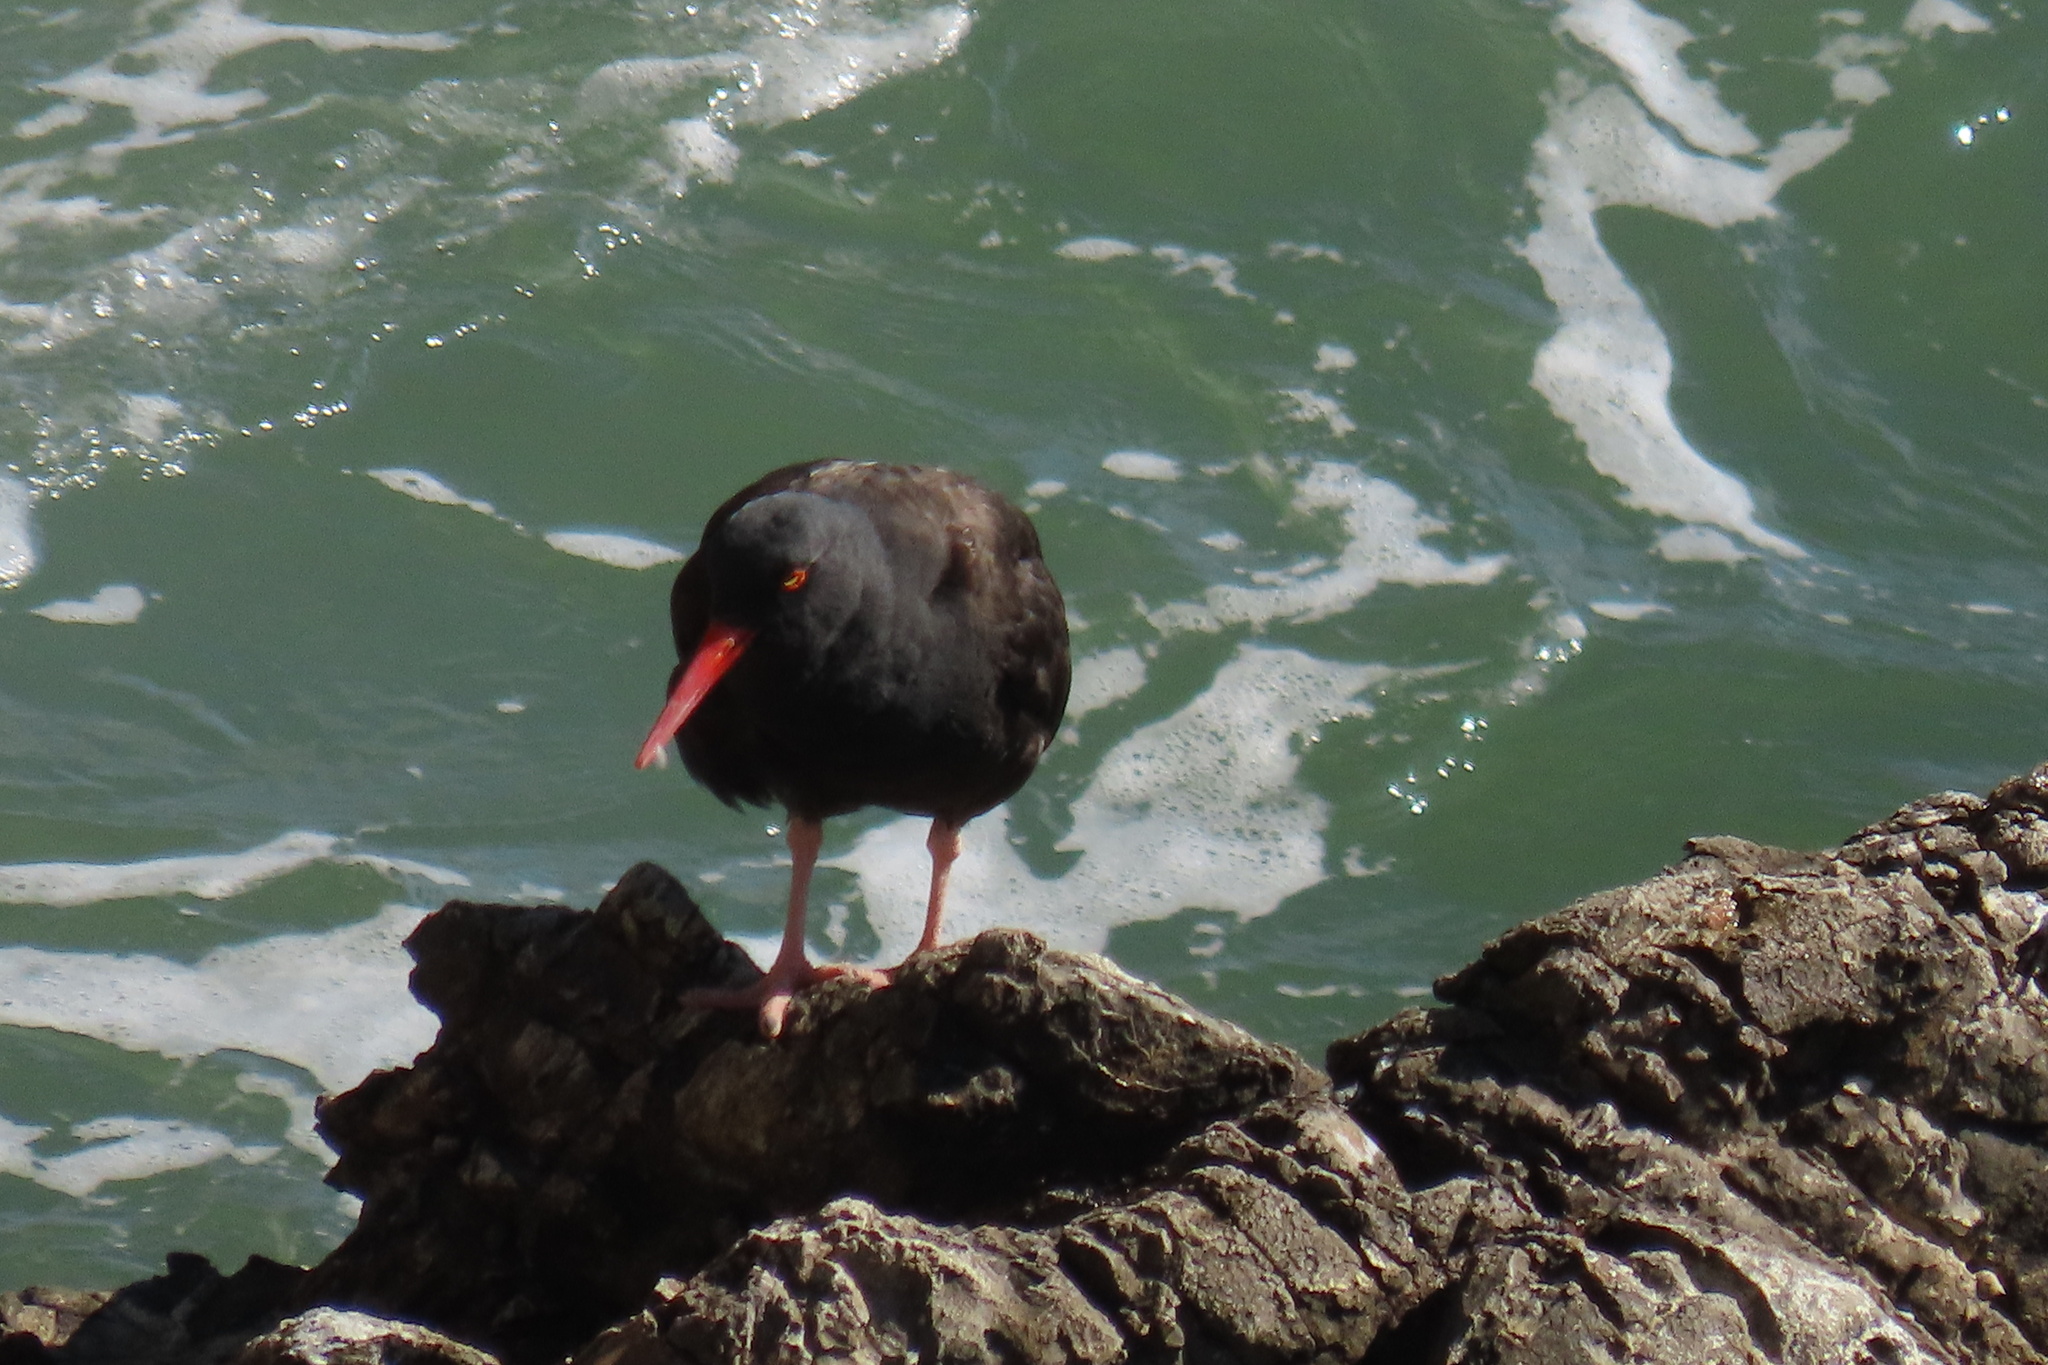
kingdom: Animalia
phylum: Chordata
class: Aves
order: Charadriiformes
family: Haematopodidae
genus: Haematopus
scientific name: Haematopus bachmani
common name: Black oystercatcher
